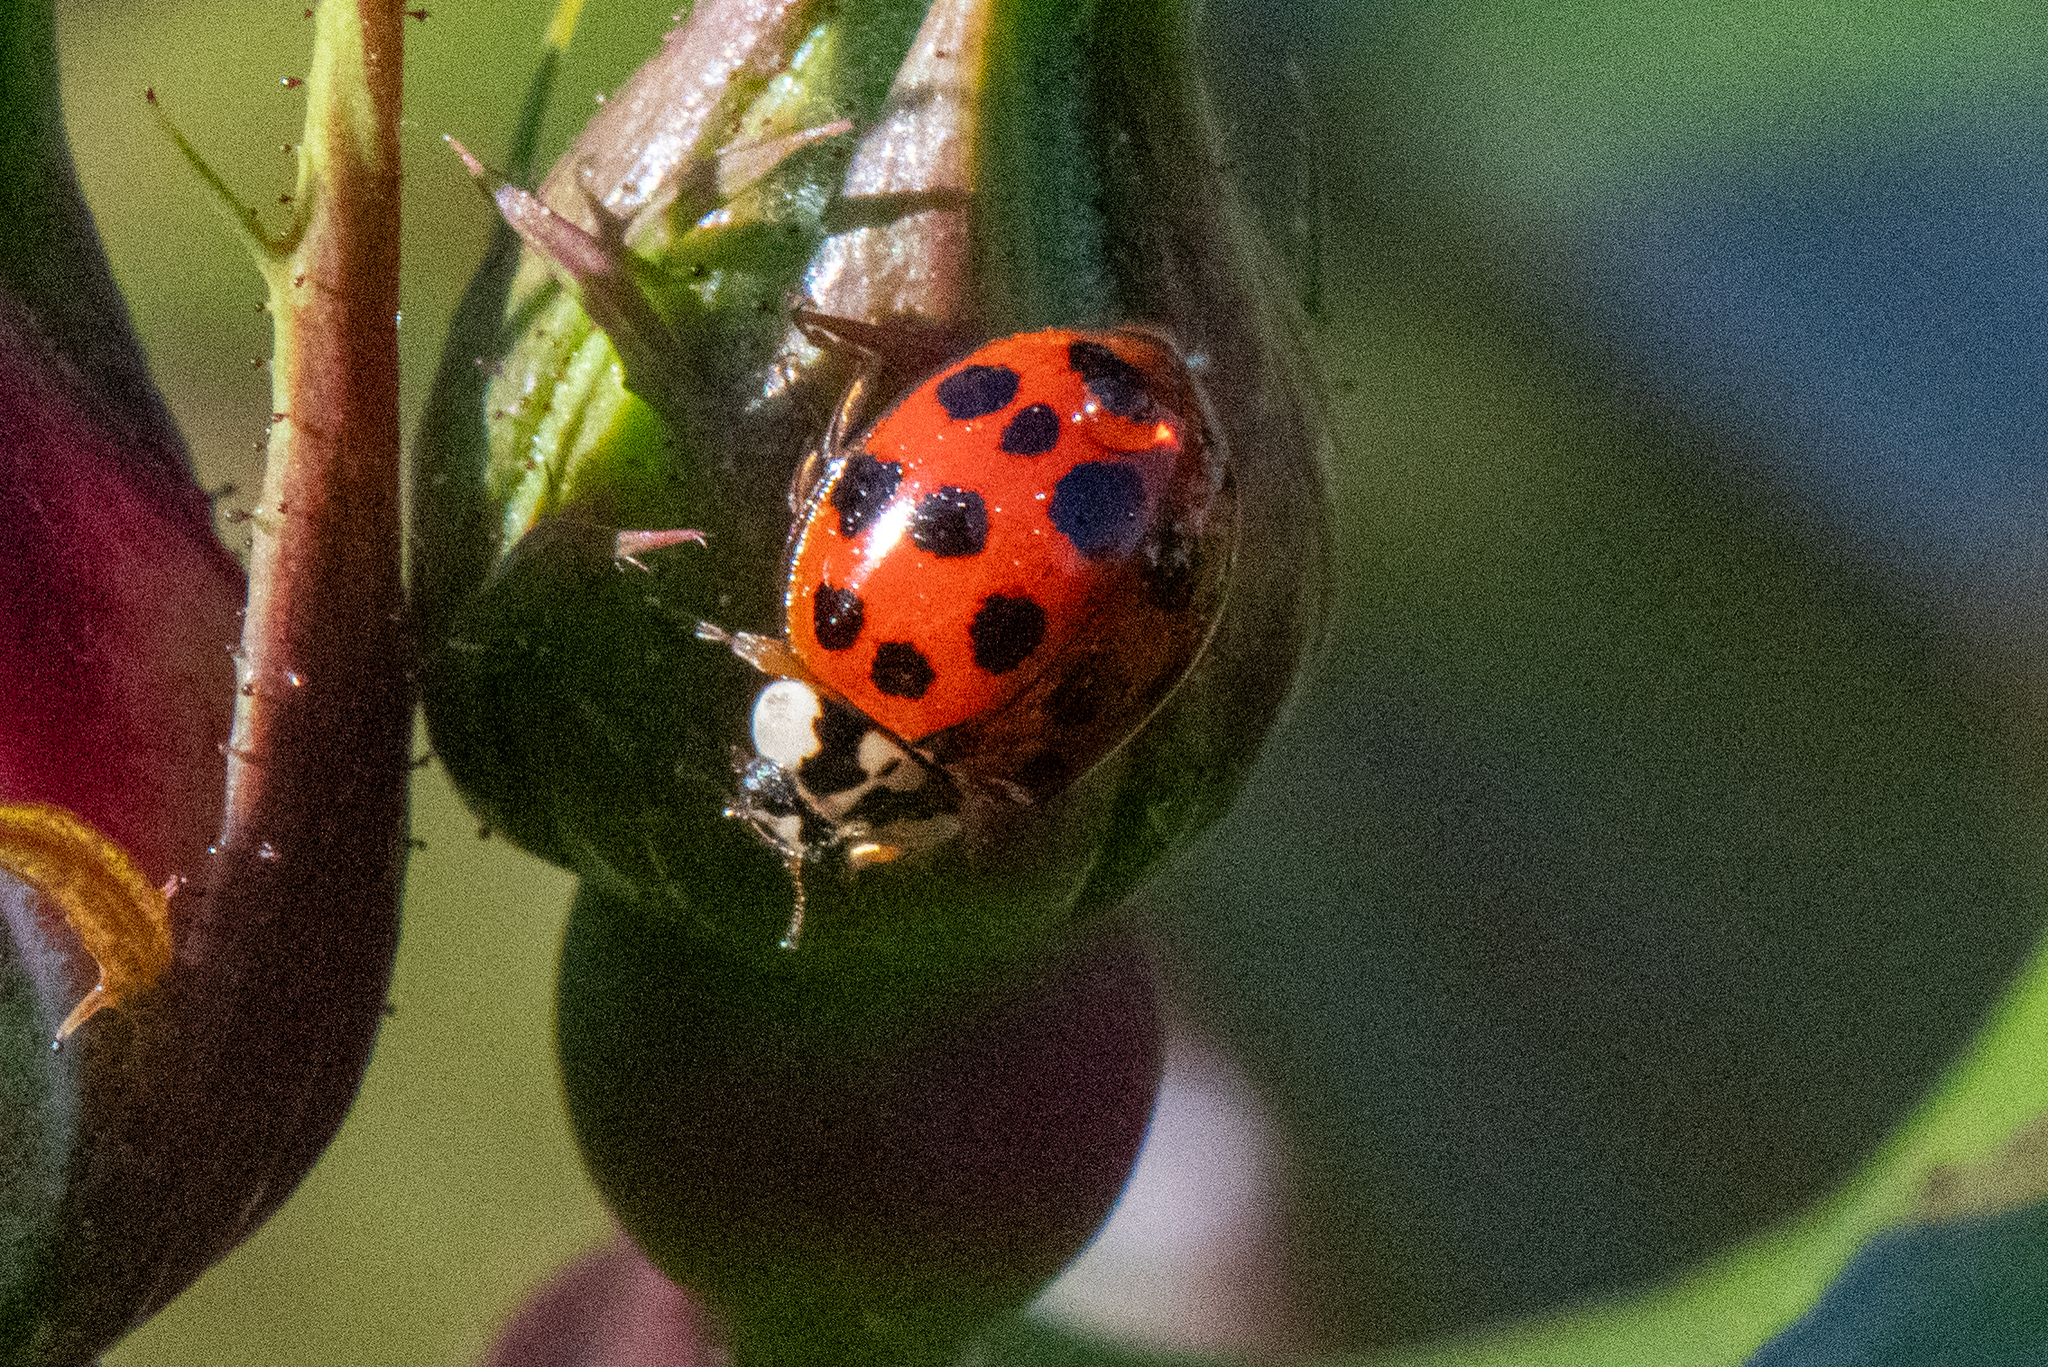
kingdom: Animalia
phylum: Arthropoda
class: Insecta
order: Coleoptera
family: Coccinellidae
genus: Harmonia
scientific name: Harmonia axyridis
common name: Harlequin ladybird
